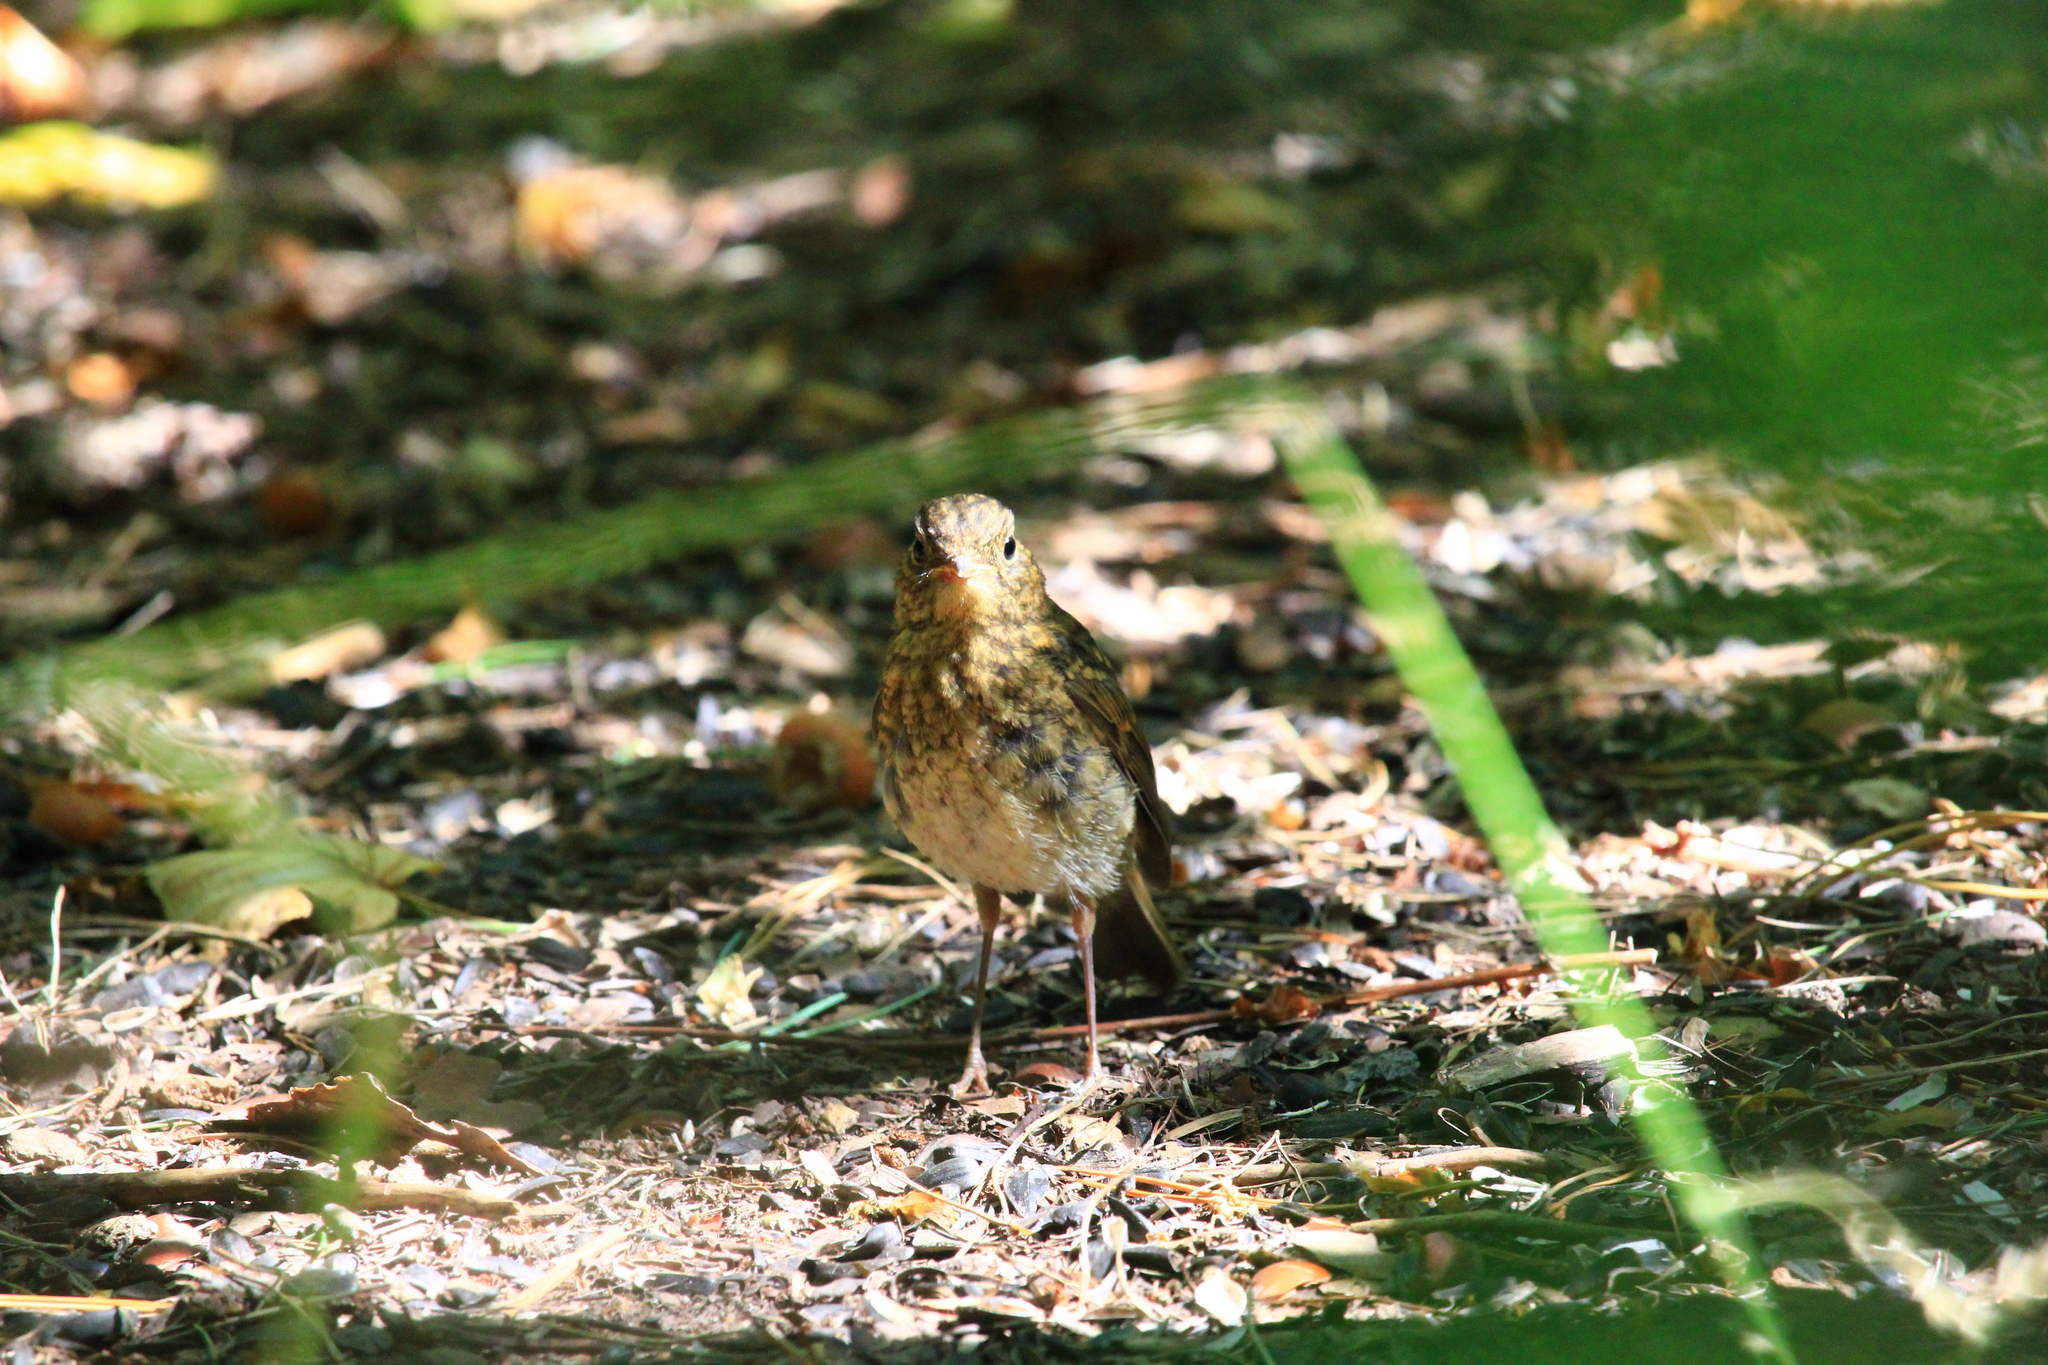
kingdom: Animalia
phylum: Chordata
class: Aves
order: Passeriformes
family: Muscicapidae
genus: Erithacus
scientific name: Erithacus rubecula
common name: European robin
